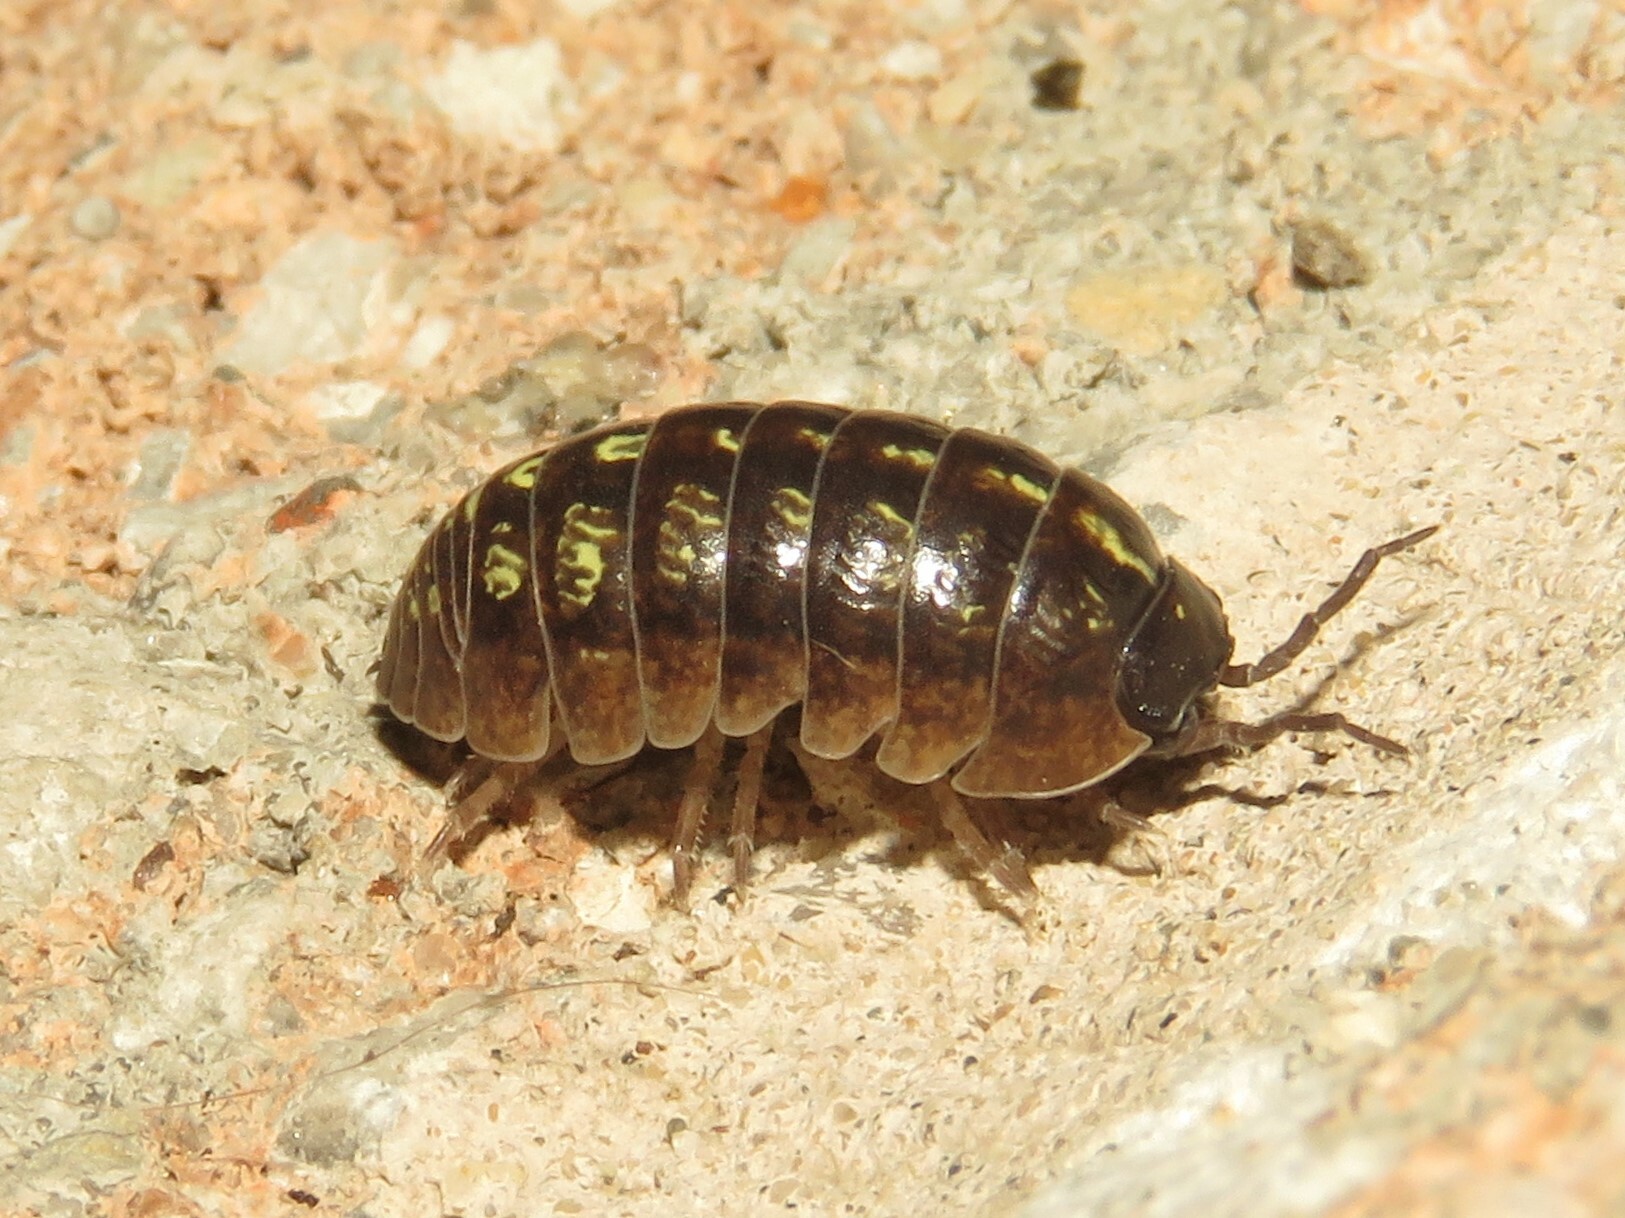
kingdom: Animalia
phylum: Arthropoda
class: Malacostraca
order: Isopoda
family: Armadillidiidae
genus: Armadillidium
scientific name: Armadillidium vulgare
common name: Common pill woodlouse
